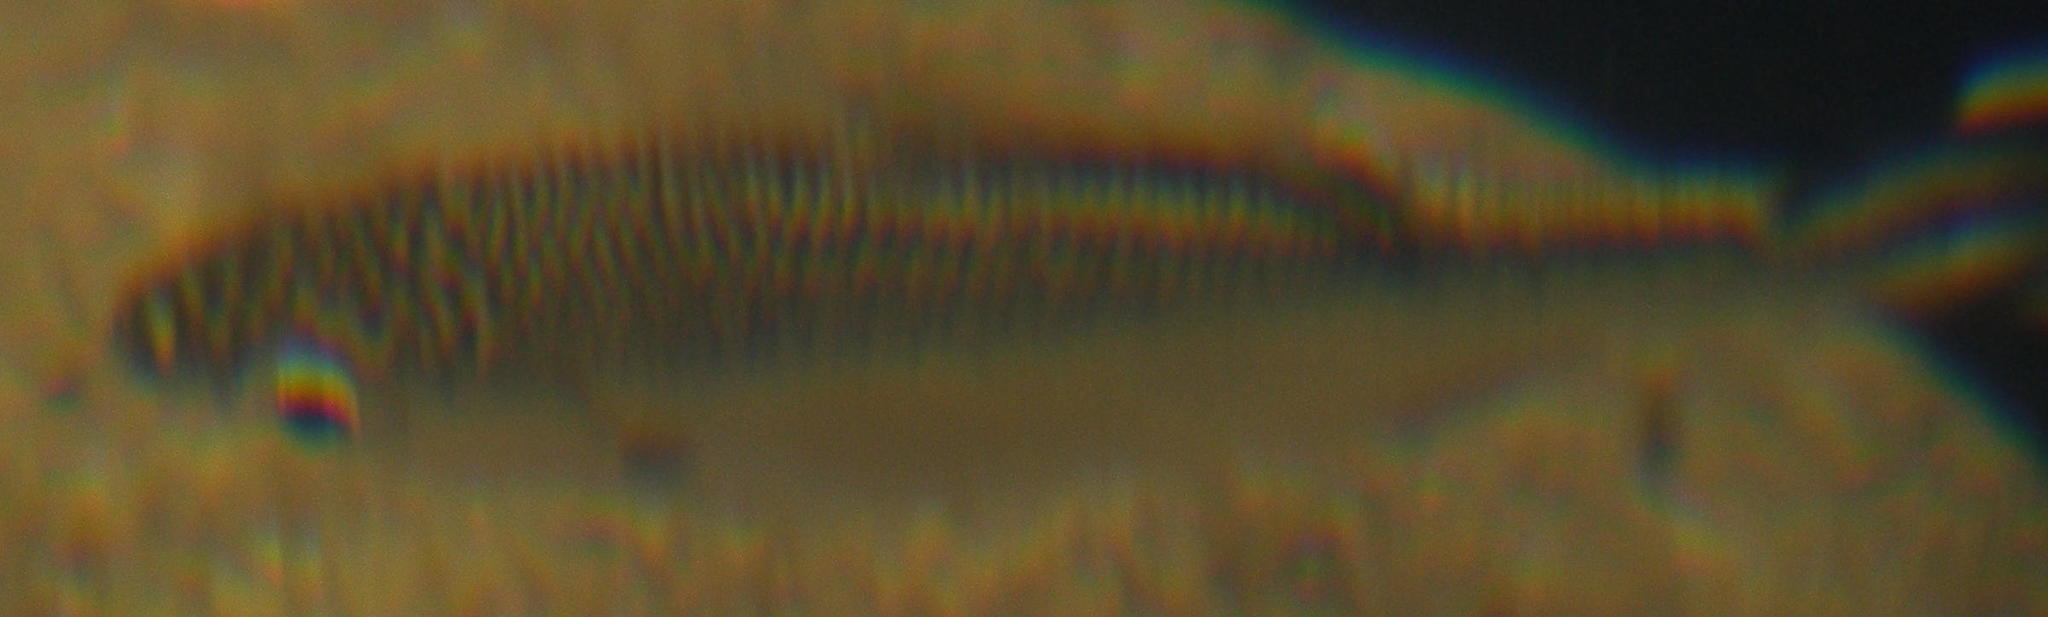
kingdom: Animalia
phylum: Chordata
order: Perciformes
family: Kuhliidae
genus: Kuhlia
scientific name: Kuhlia mugil
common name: Barred flagtail
